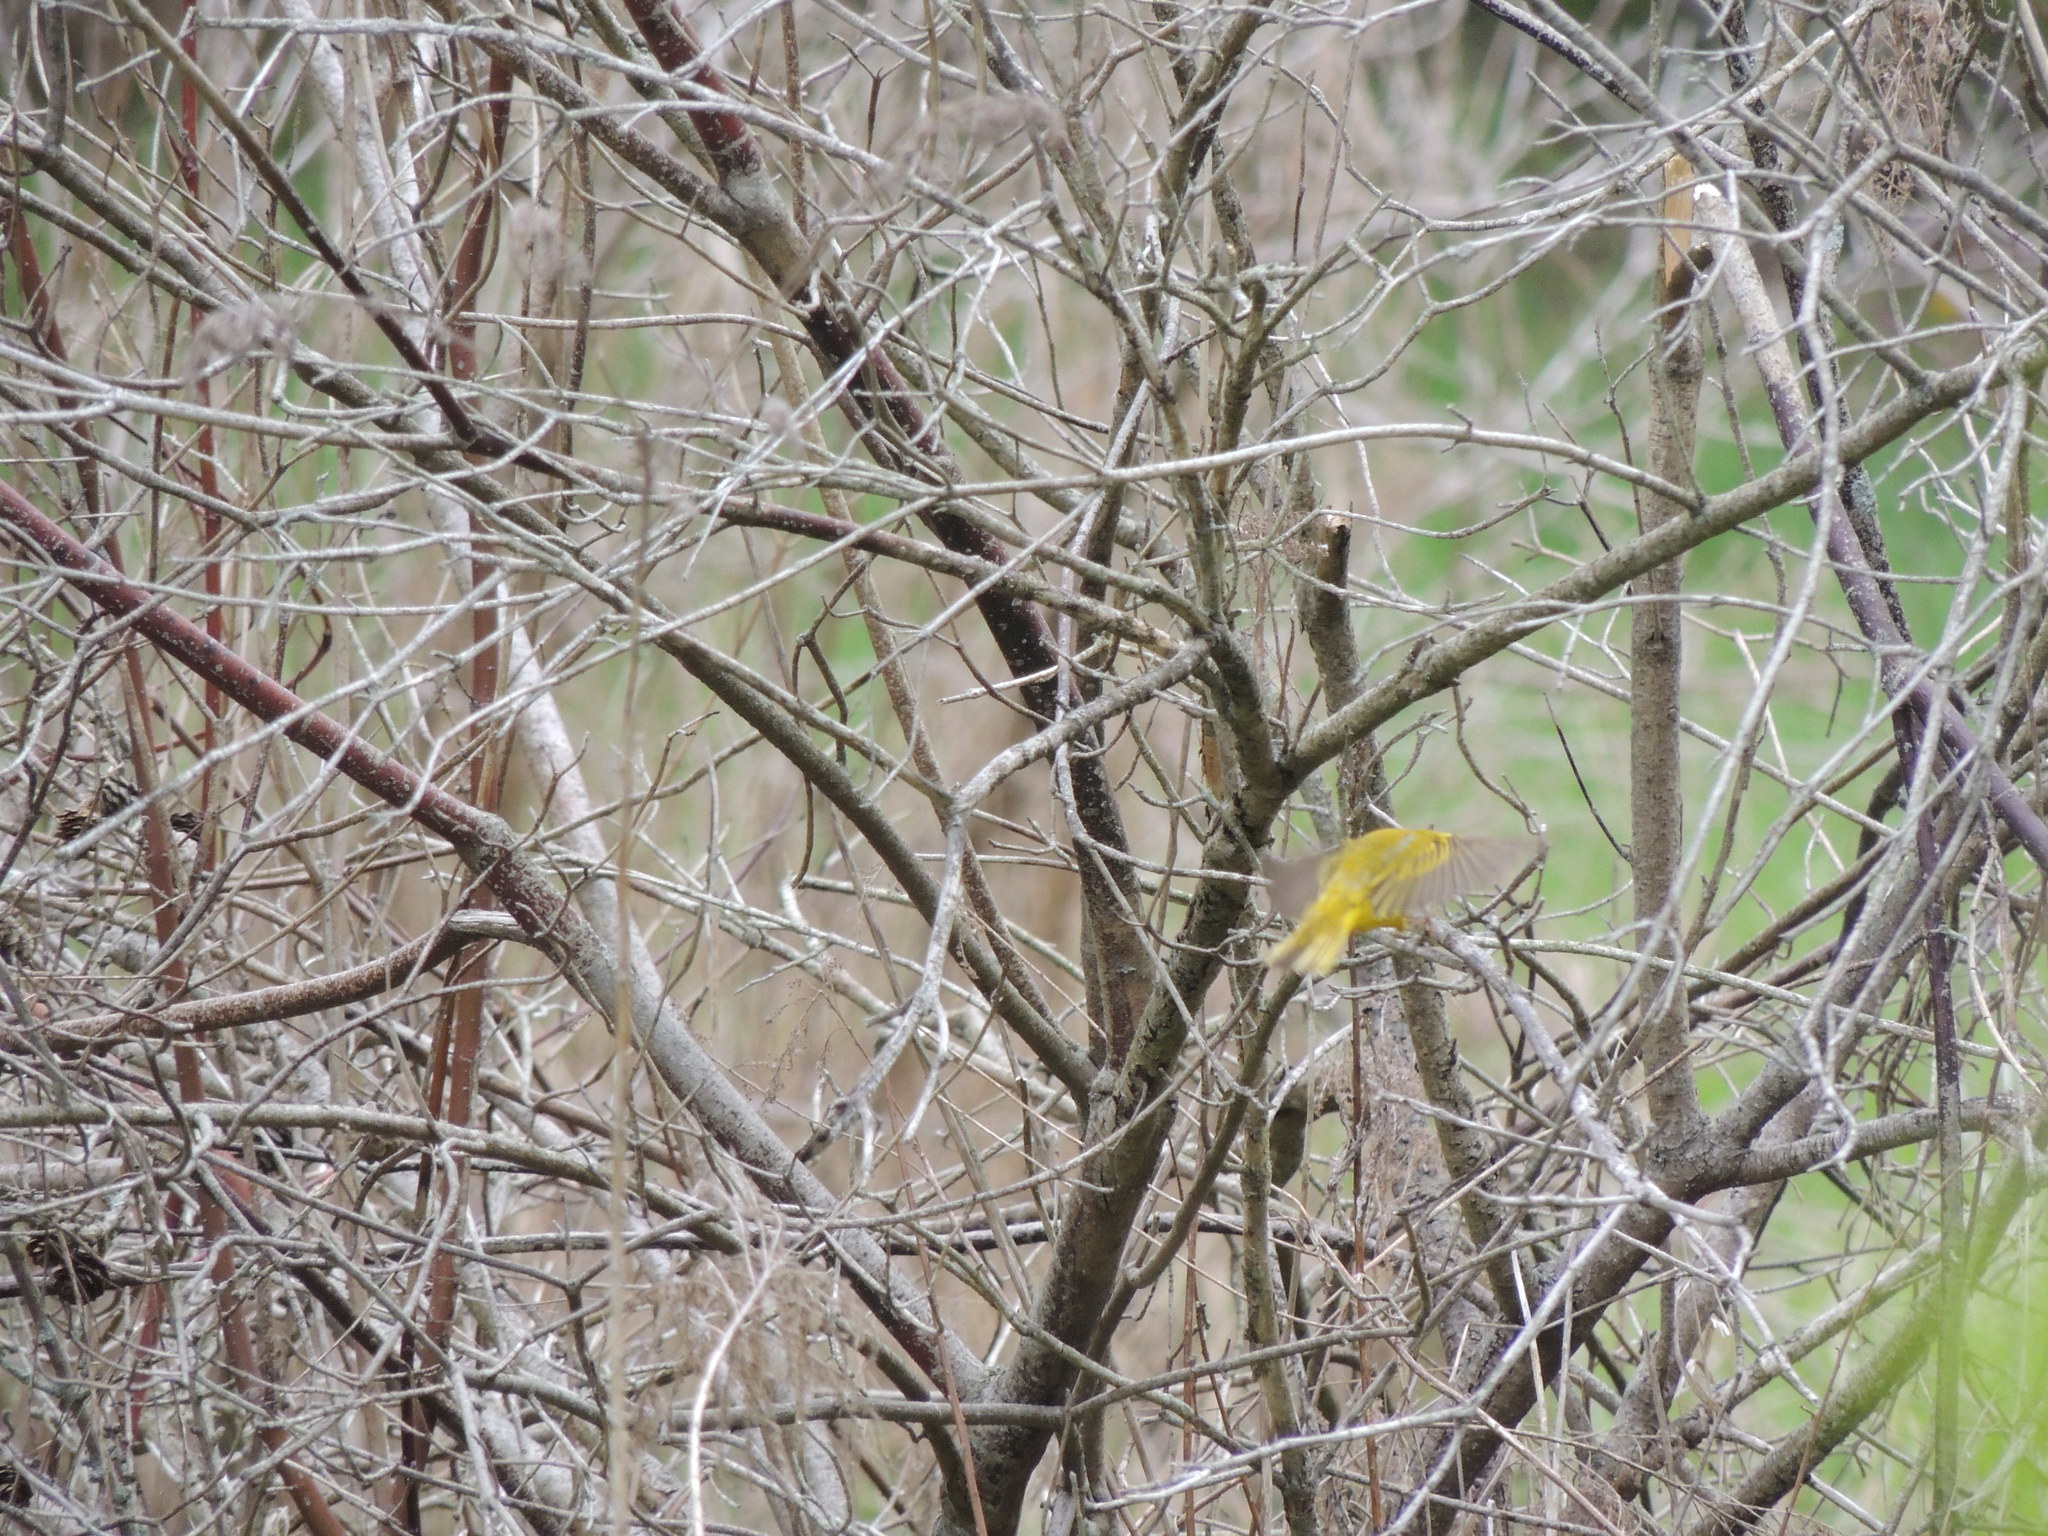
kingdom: Animalia
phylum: Chordata
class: Aves
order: Passeriformes
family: Parulidae
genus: Setophaga
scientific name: Setophaga petechia
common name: Yellow warbler
